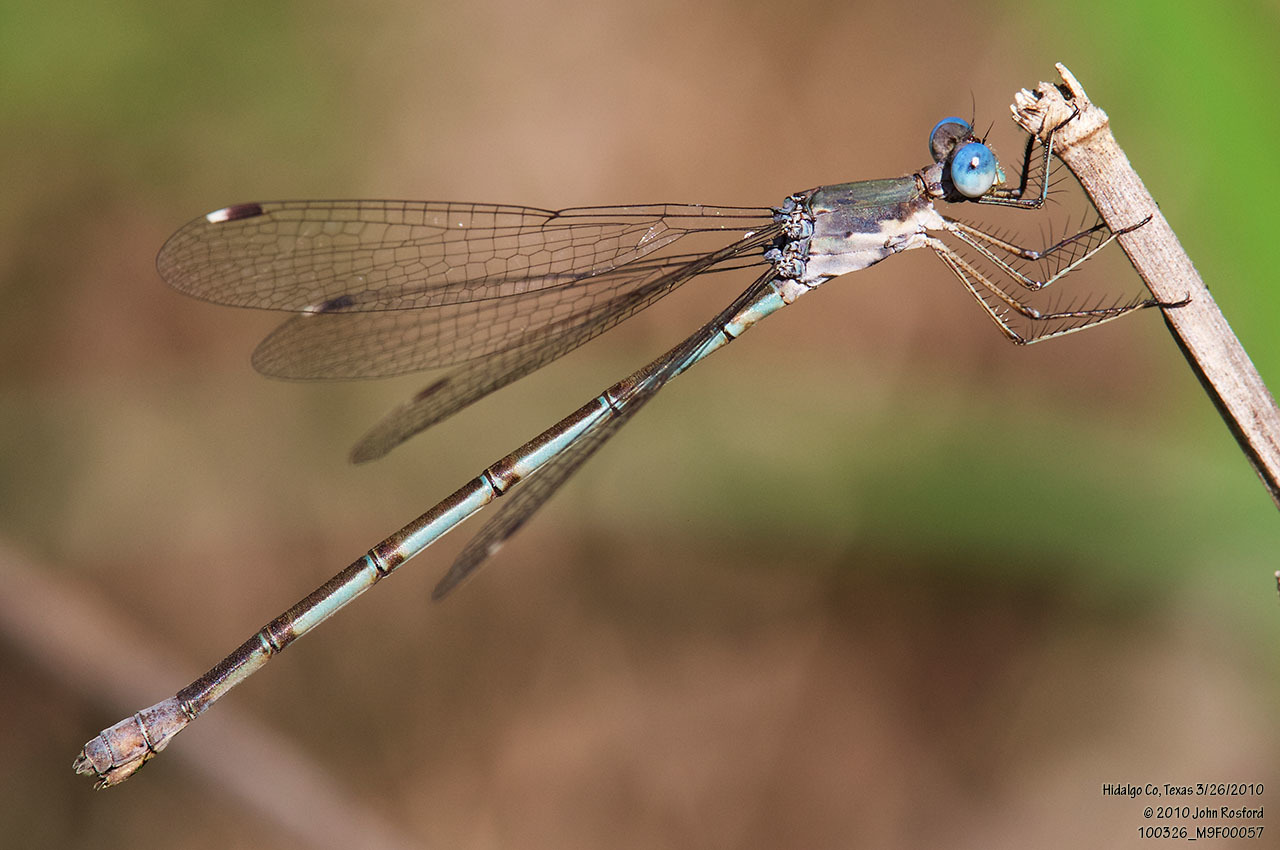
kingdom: Animalia
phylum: Arthropoda
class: Insecta
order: Odonata
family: Lestidae
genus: Lestes
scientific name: Lestes sigma
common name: Chalky spreadwing
